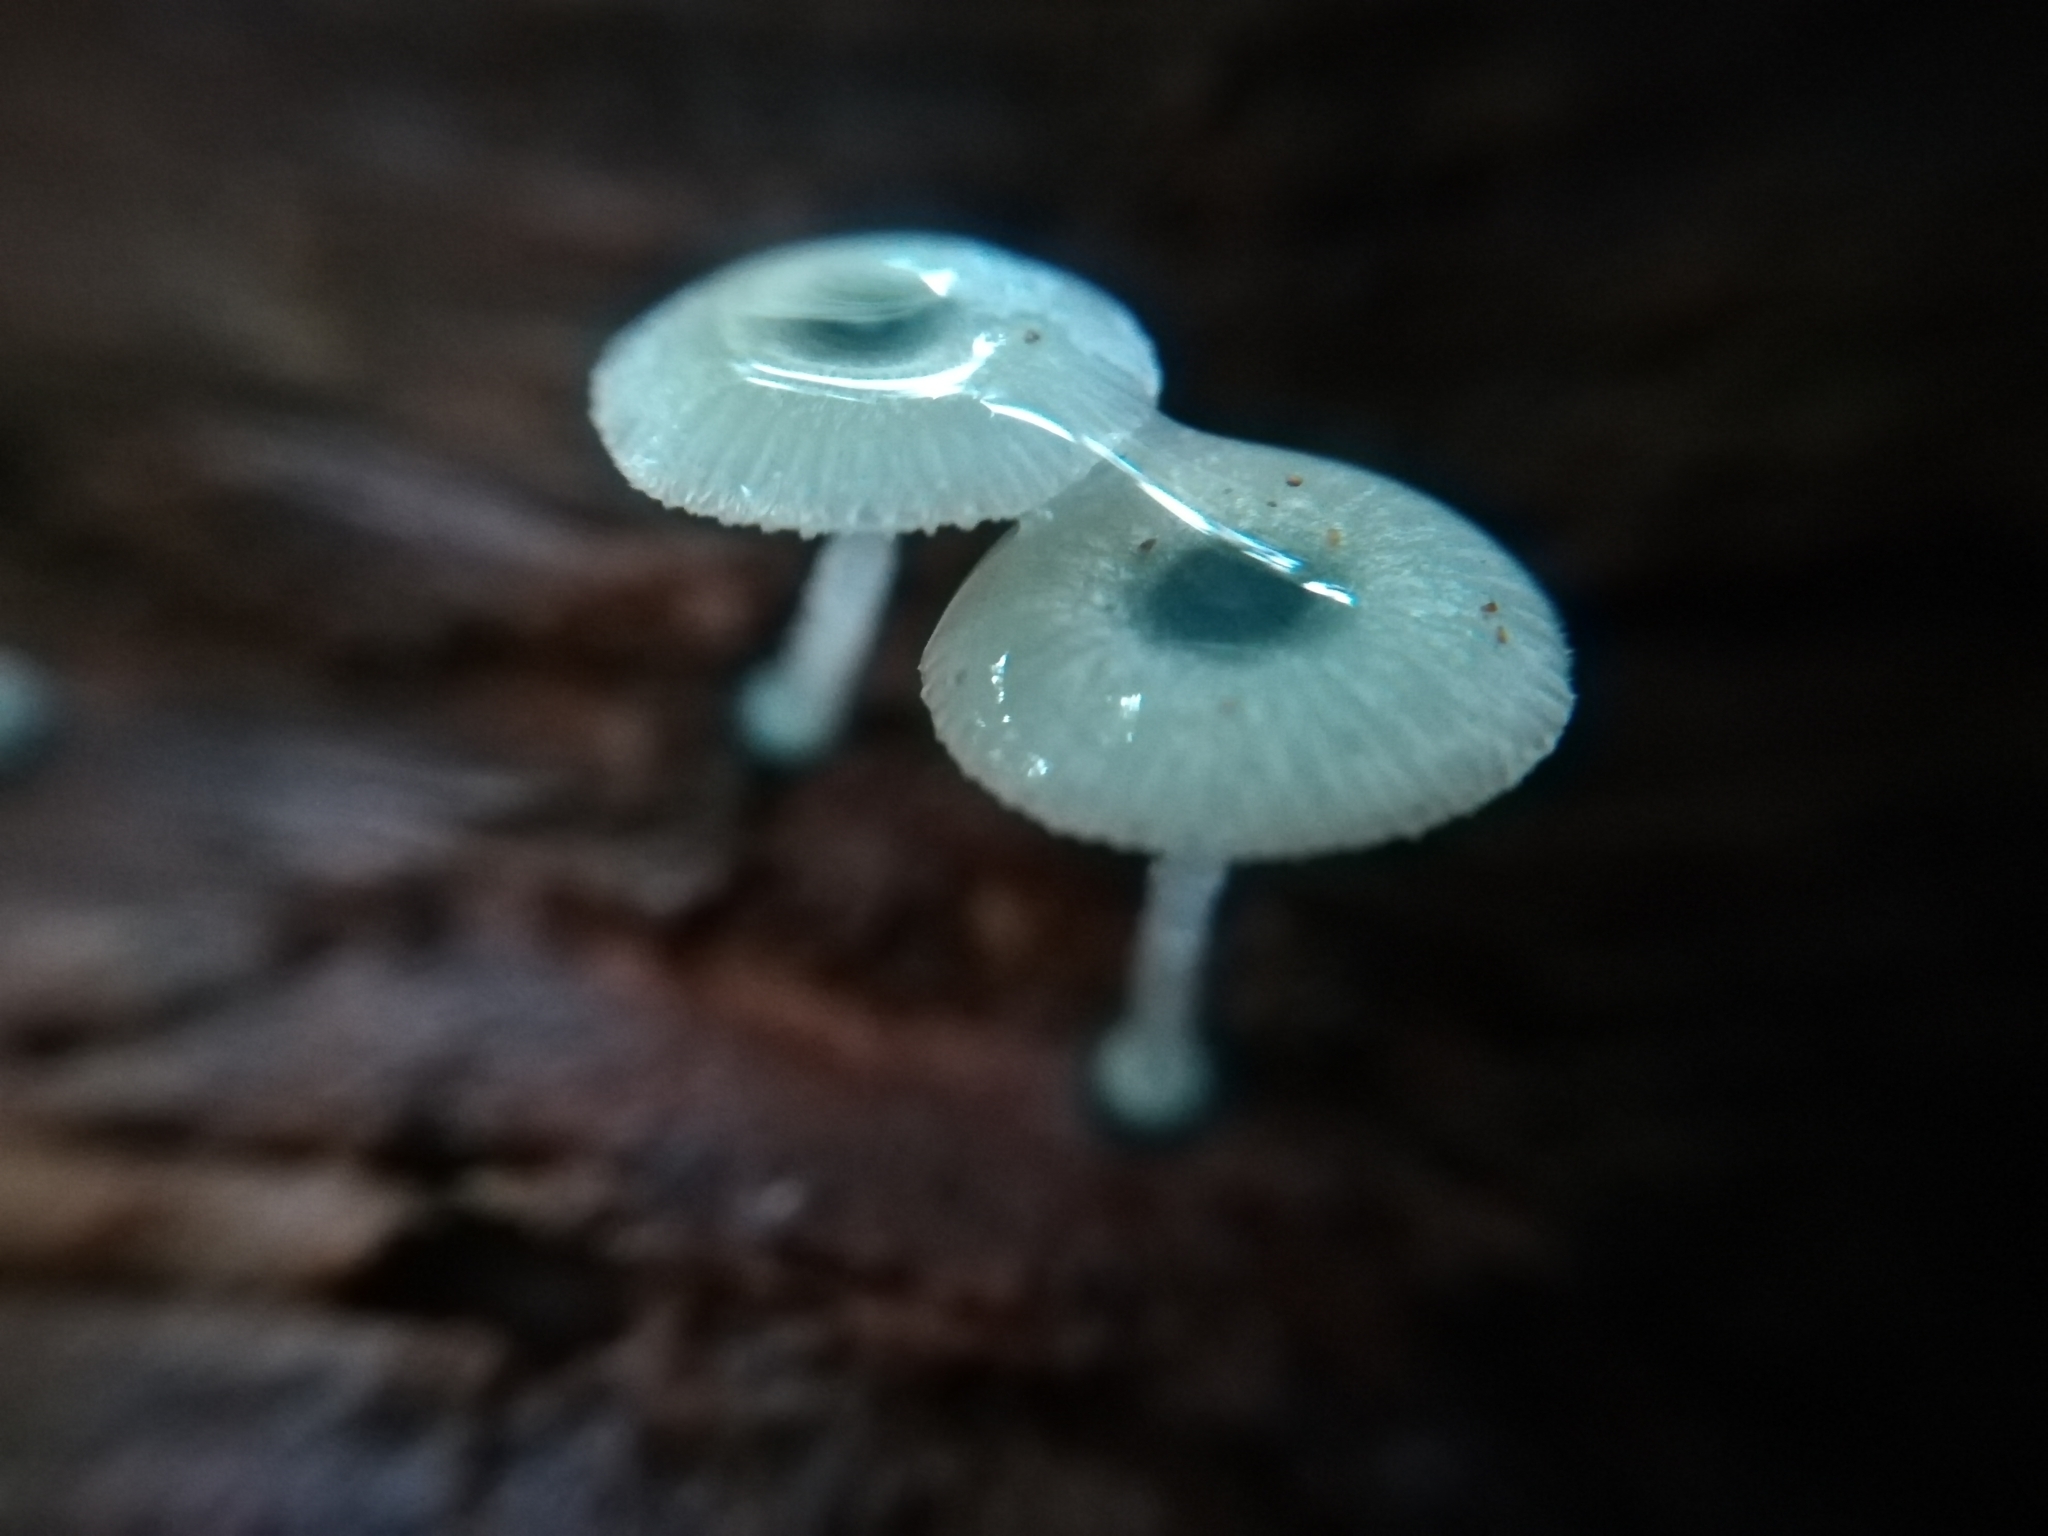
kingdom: Fungi
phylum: Basidiomycota
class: Agaricomycetes
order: Agaricales
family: Mycenaceae
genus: Mycena
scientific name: Mycena interrupta
